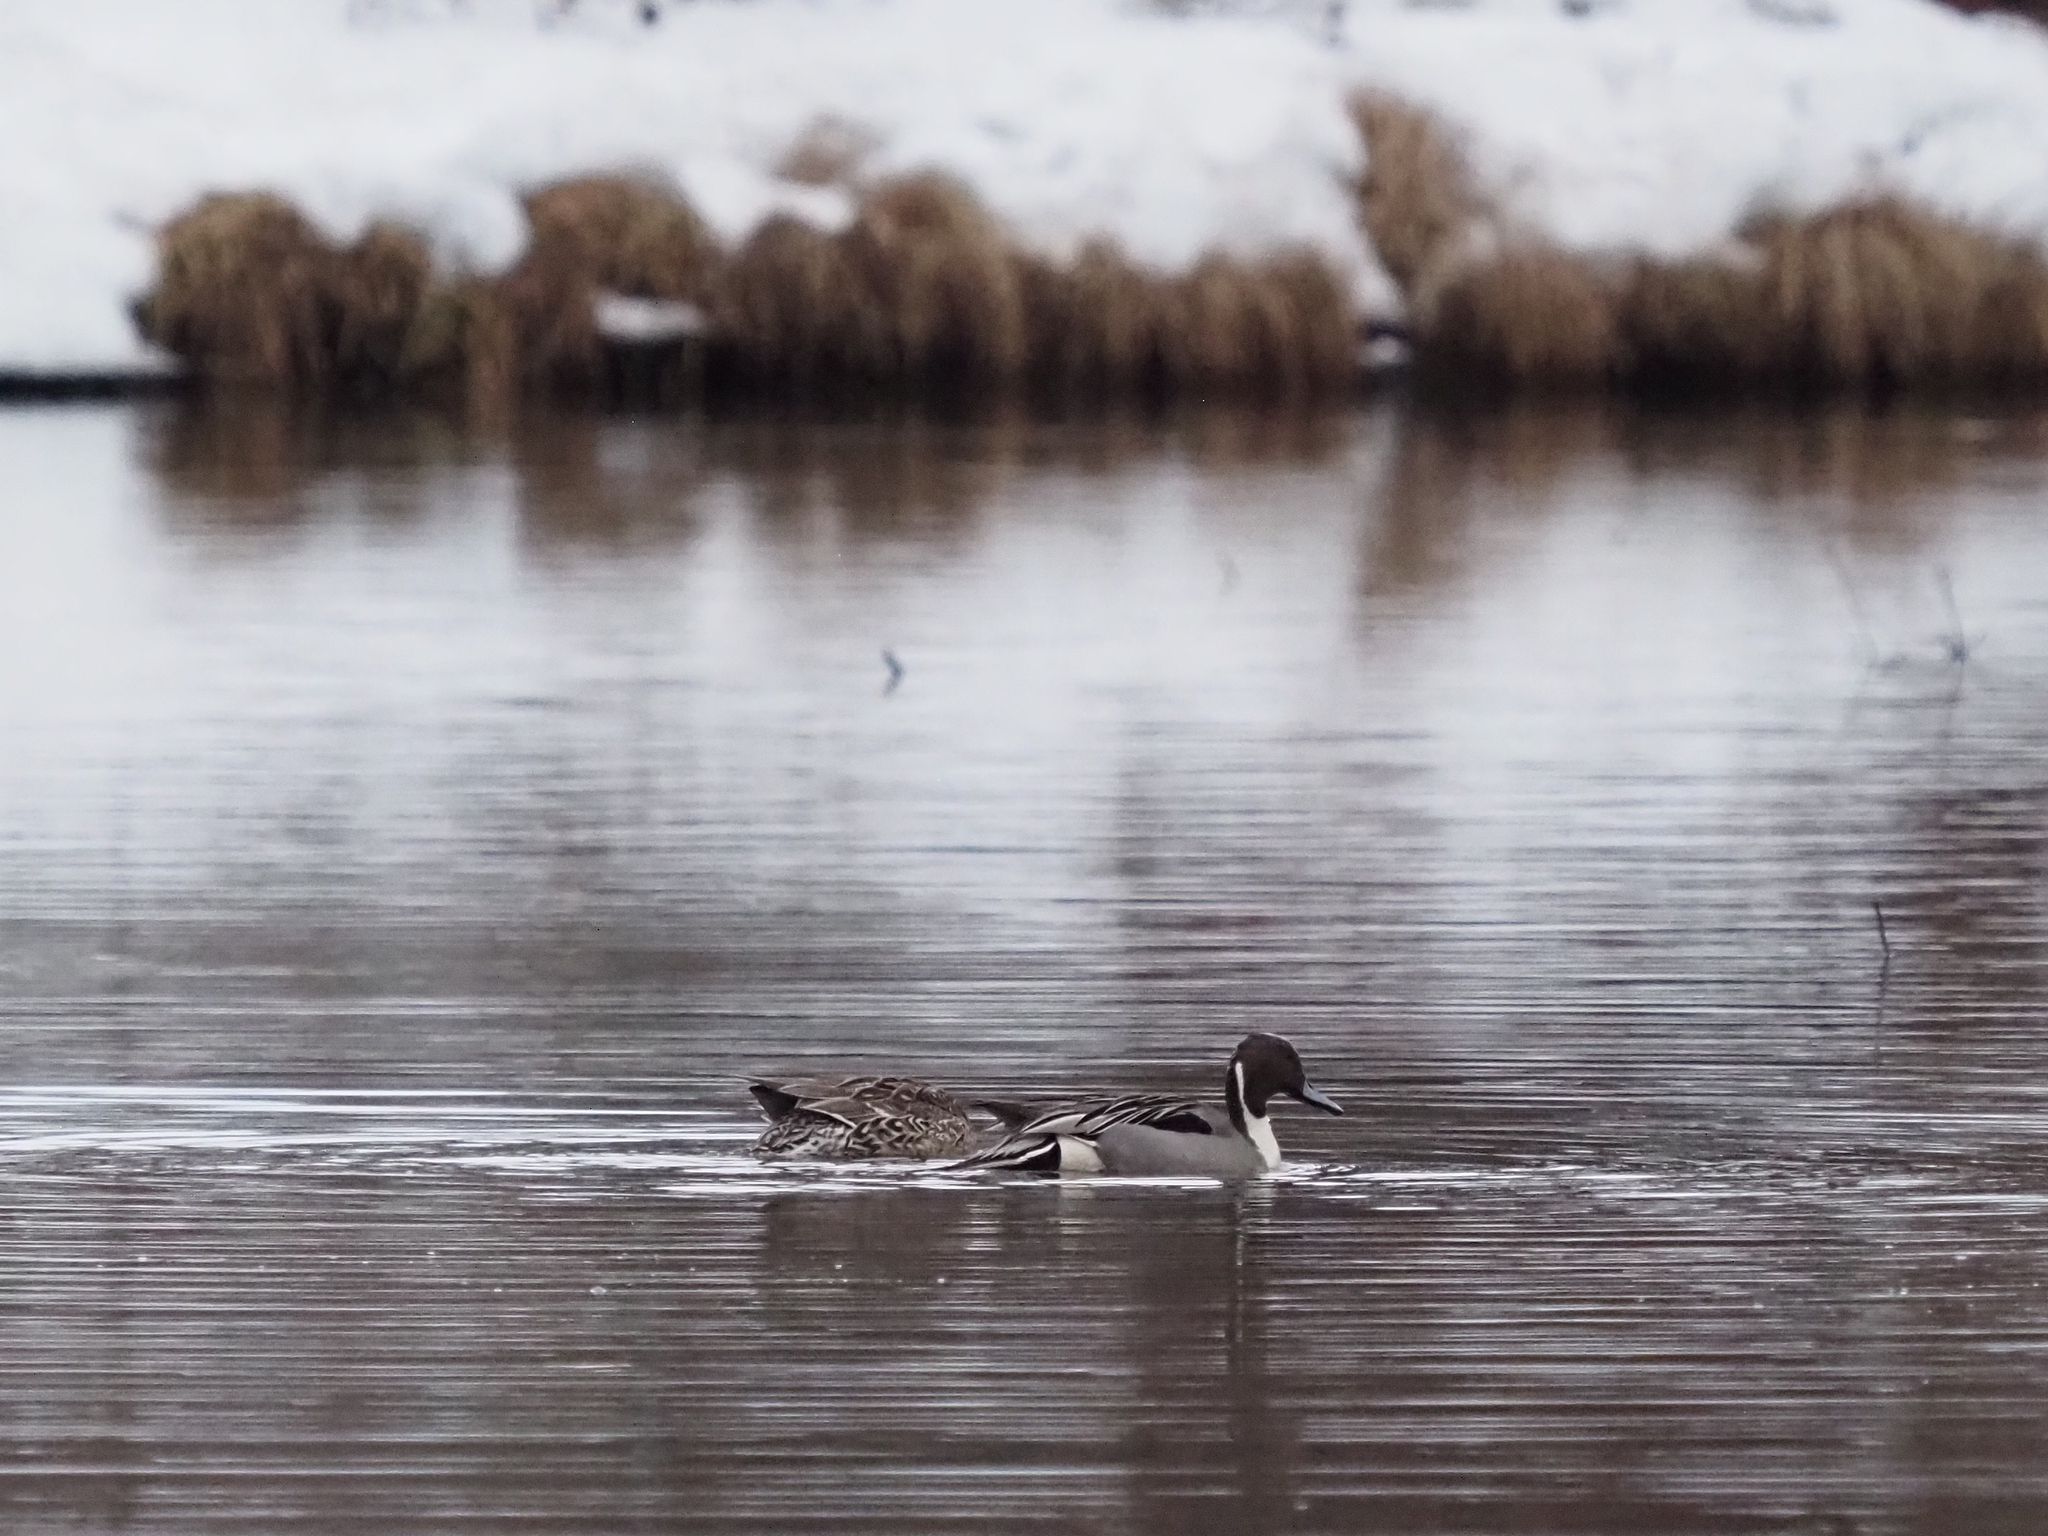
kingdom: Animalia
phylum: Chordata
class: Aves
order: Anseriformes
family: Anatidae
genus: Anas
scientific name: Anas acuta
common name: Northern pintail
